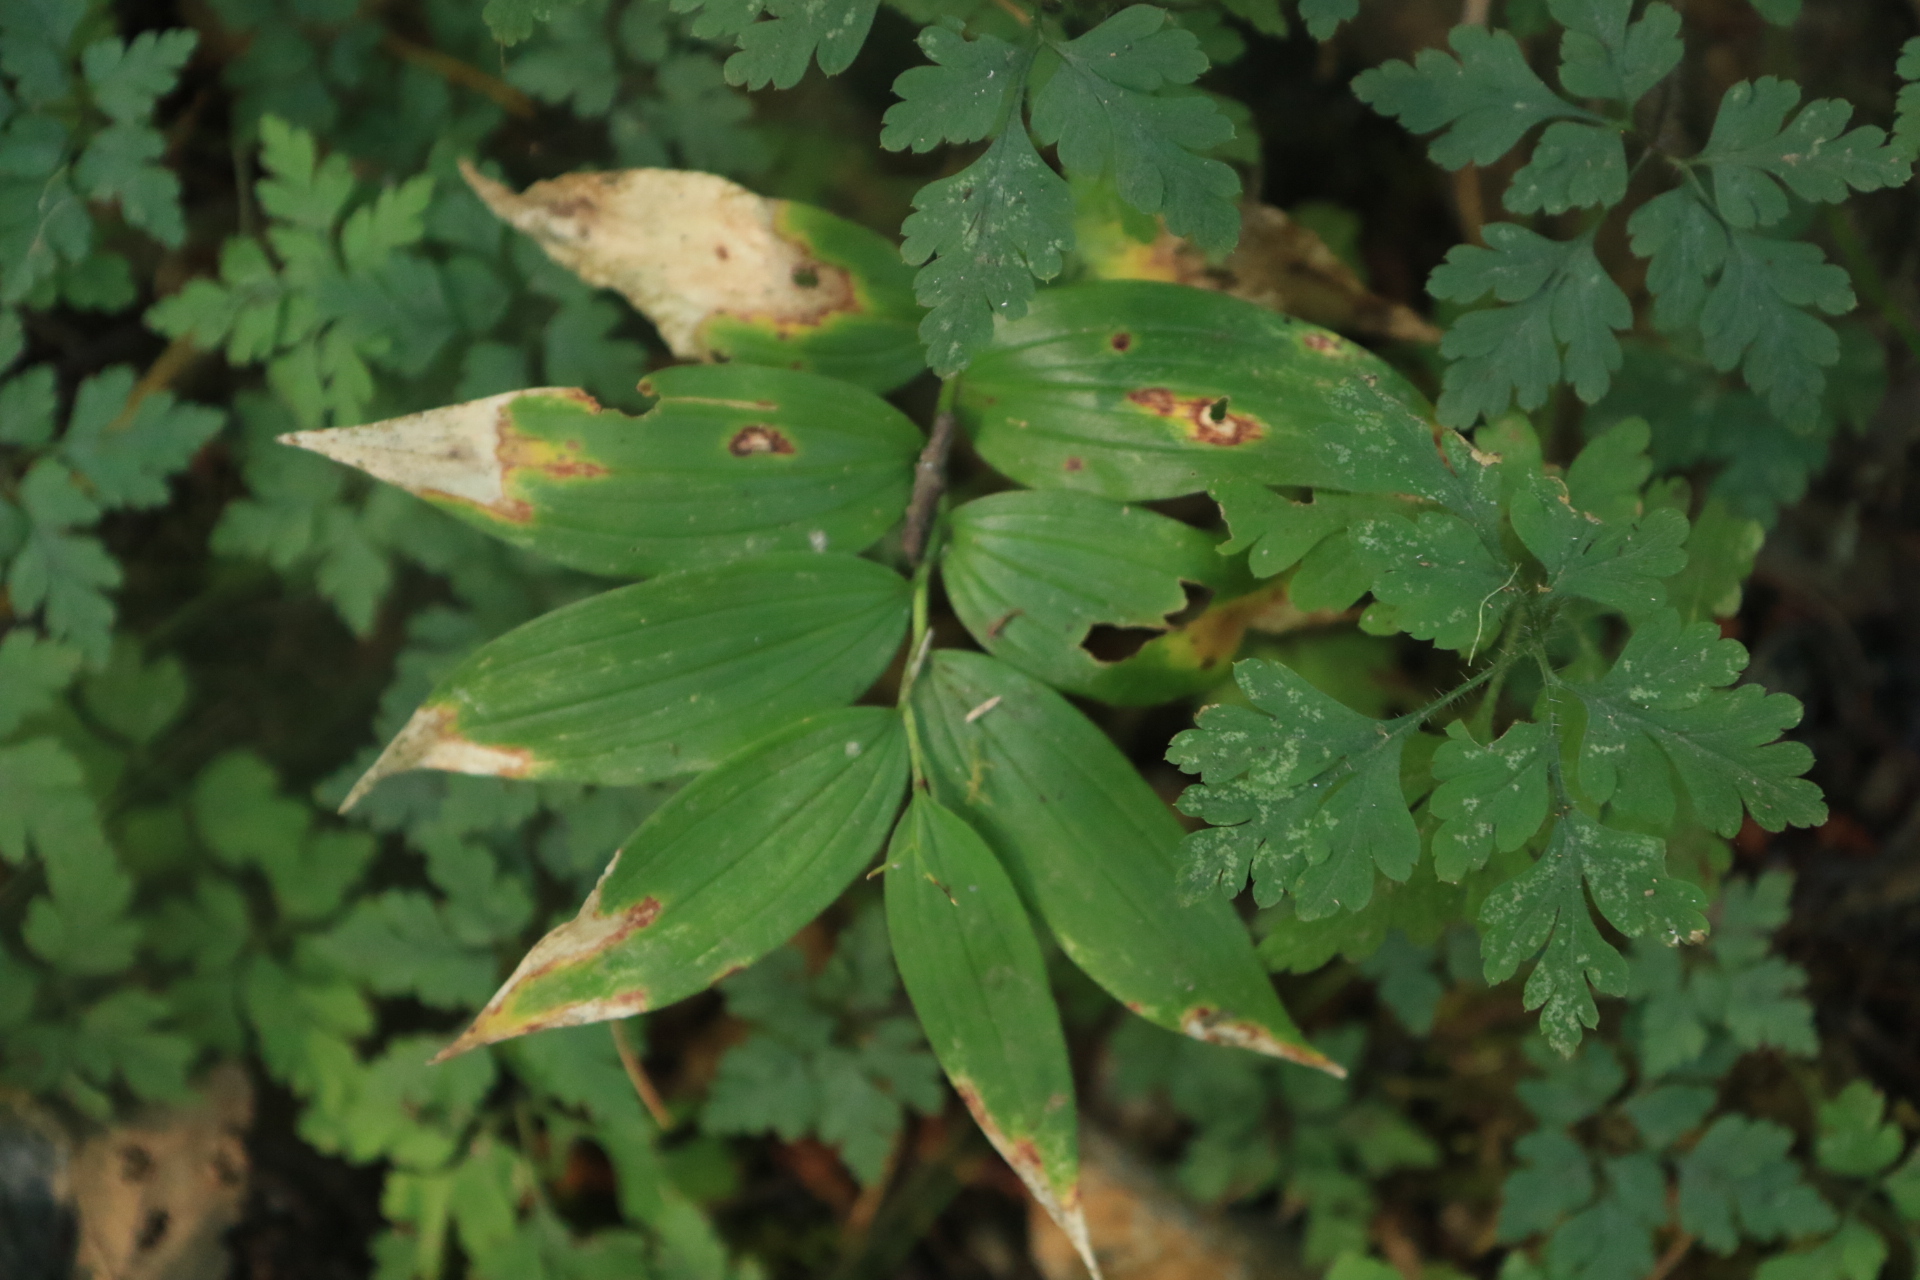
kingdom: Plantae
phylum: Tracheophyta
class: Liliopsida
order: Asparagales
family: Asparagaceae
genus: Maianthemum
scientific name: Maianthemum stellatum
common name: Little false solomon's seal
